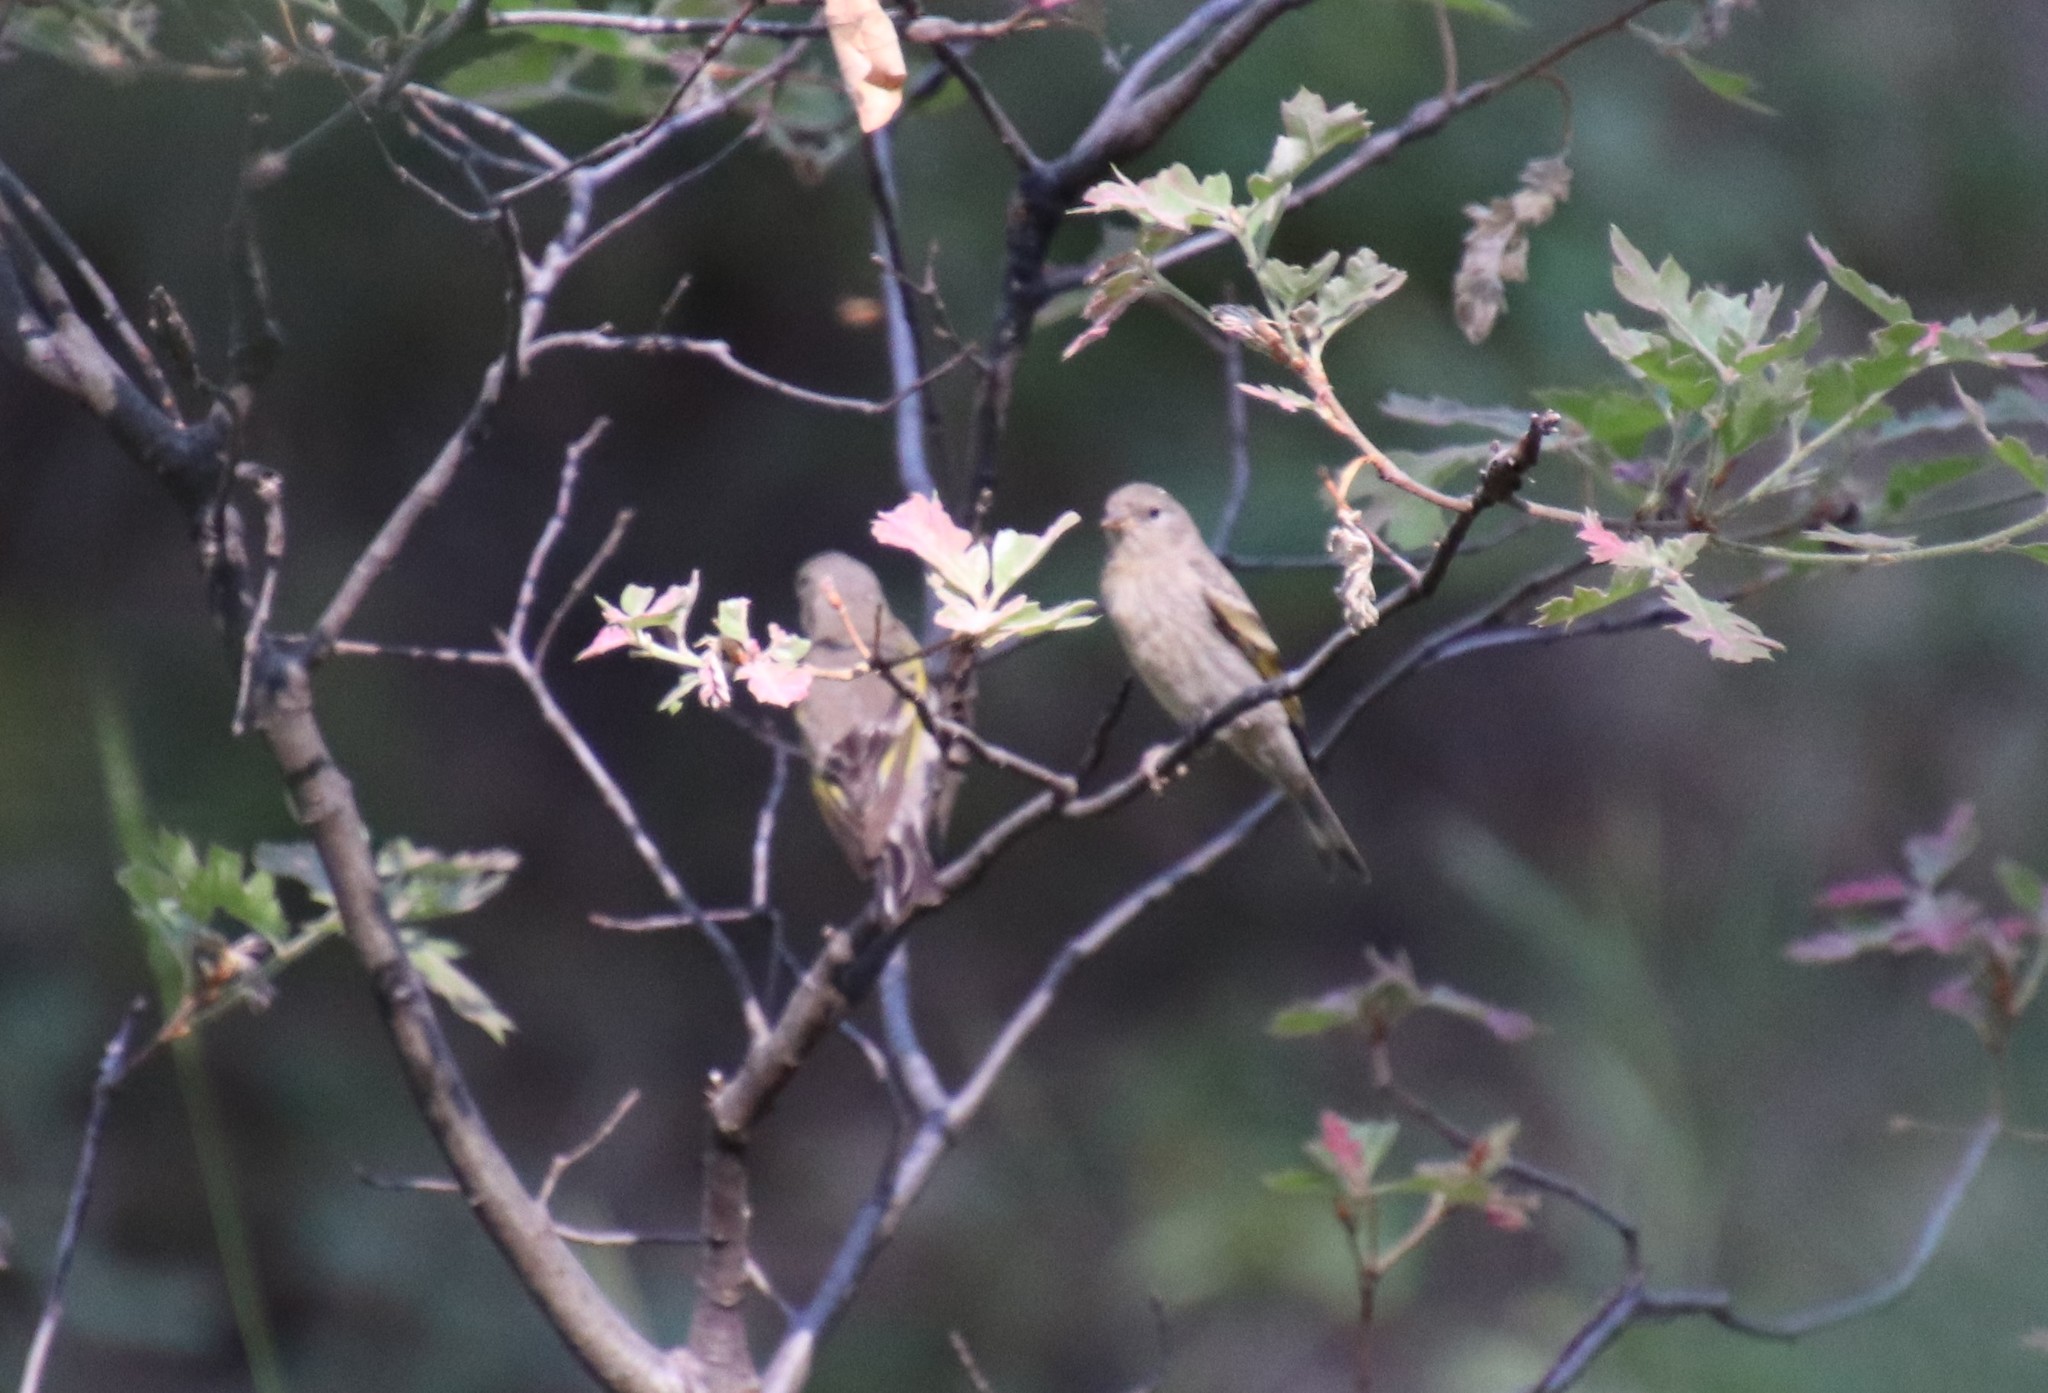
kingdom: Animalia
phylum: Chordata
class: Aves
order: Passeriformes
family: Fringillidae
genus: Spinus
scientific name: Spinus lawrencei
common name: Lawrence's goldfinch
